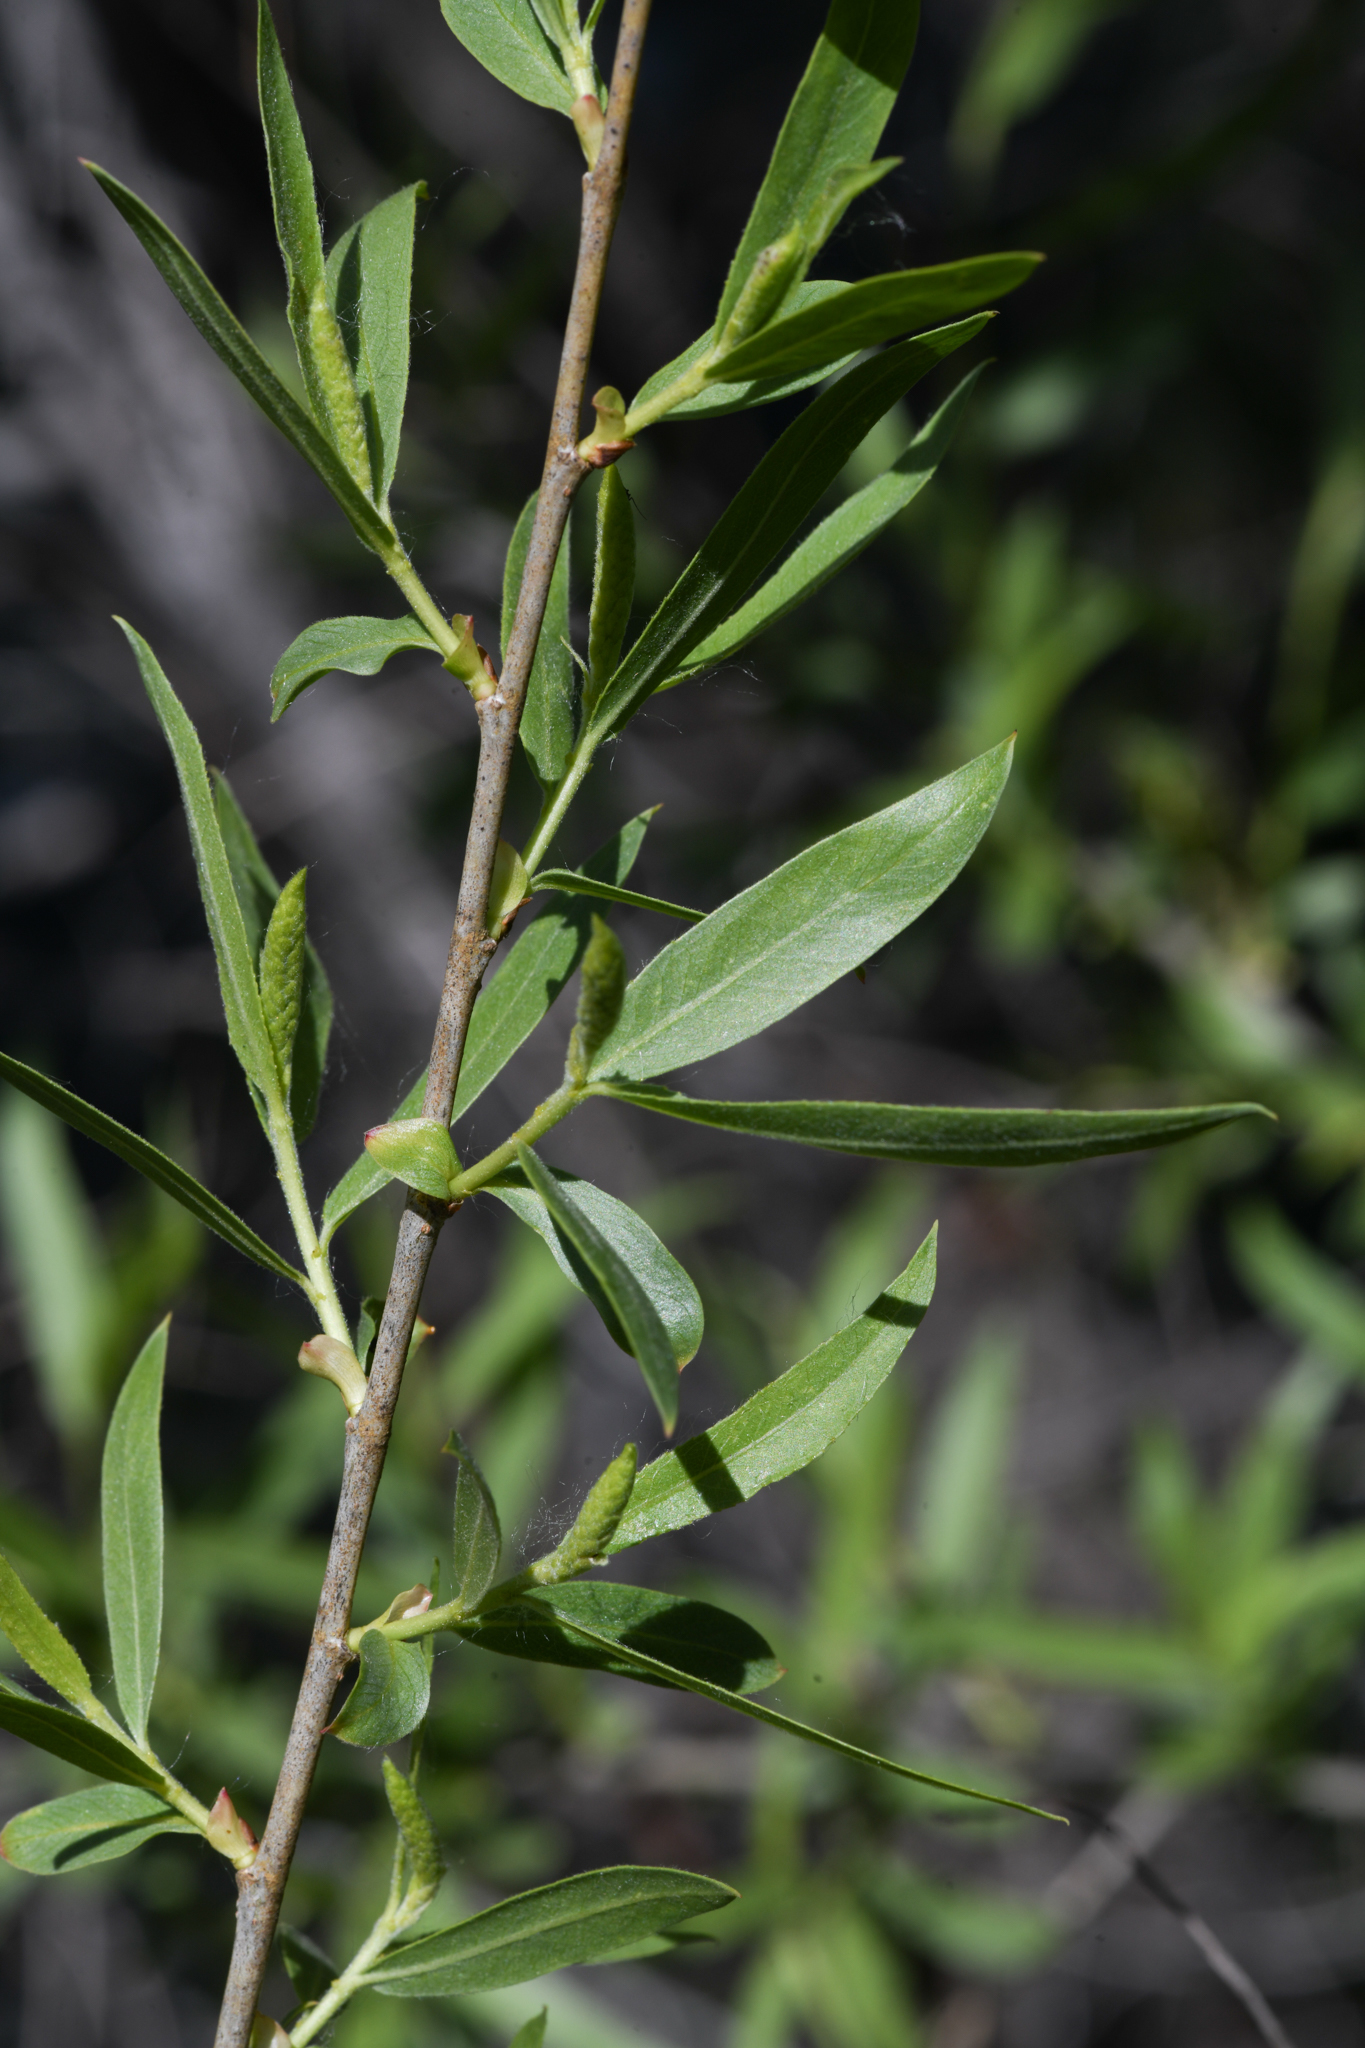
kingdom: Plantae
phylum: Tracheophyta
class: Magnoliopsida
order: Malpighiales
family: Salicaceae
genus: Salix
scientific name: Salix gooddingii
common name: Goodding's willow
